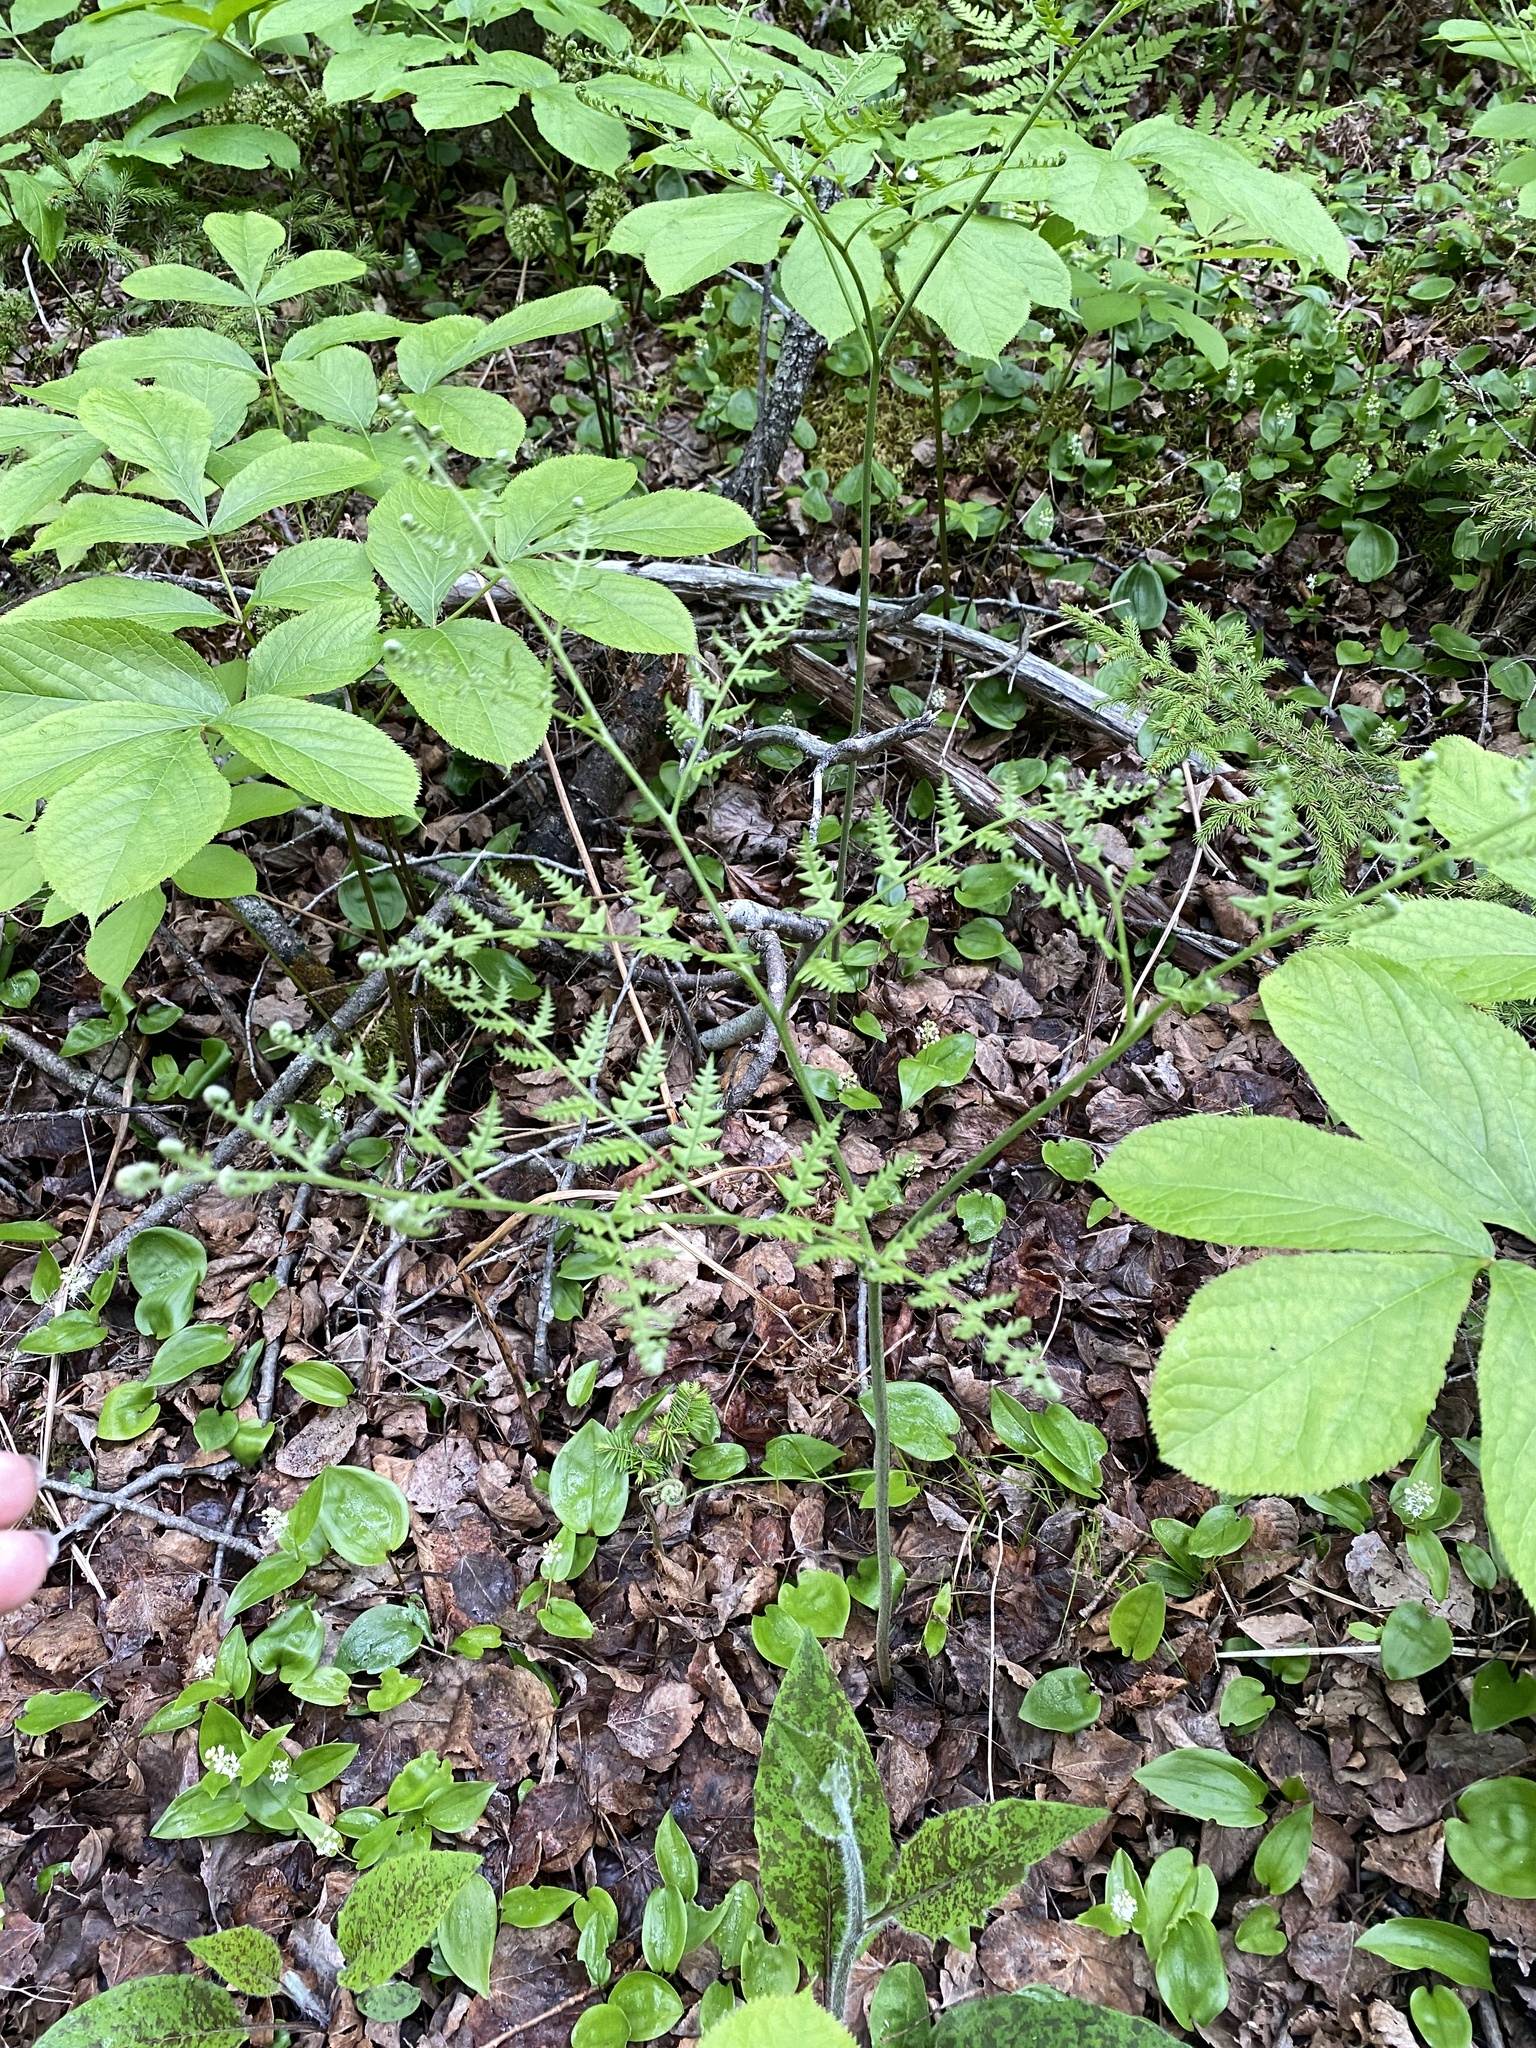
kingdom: Plantae
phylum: Tracheophyta
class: Polypodiopsida
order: Polypodiales
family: Dennstaedtiaceae
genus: Pteridium
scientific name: Pteridium aquilinum
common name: Bracken
